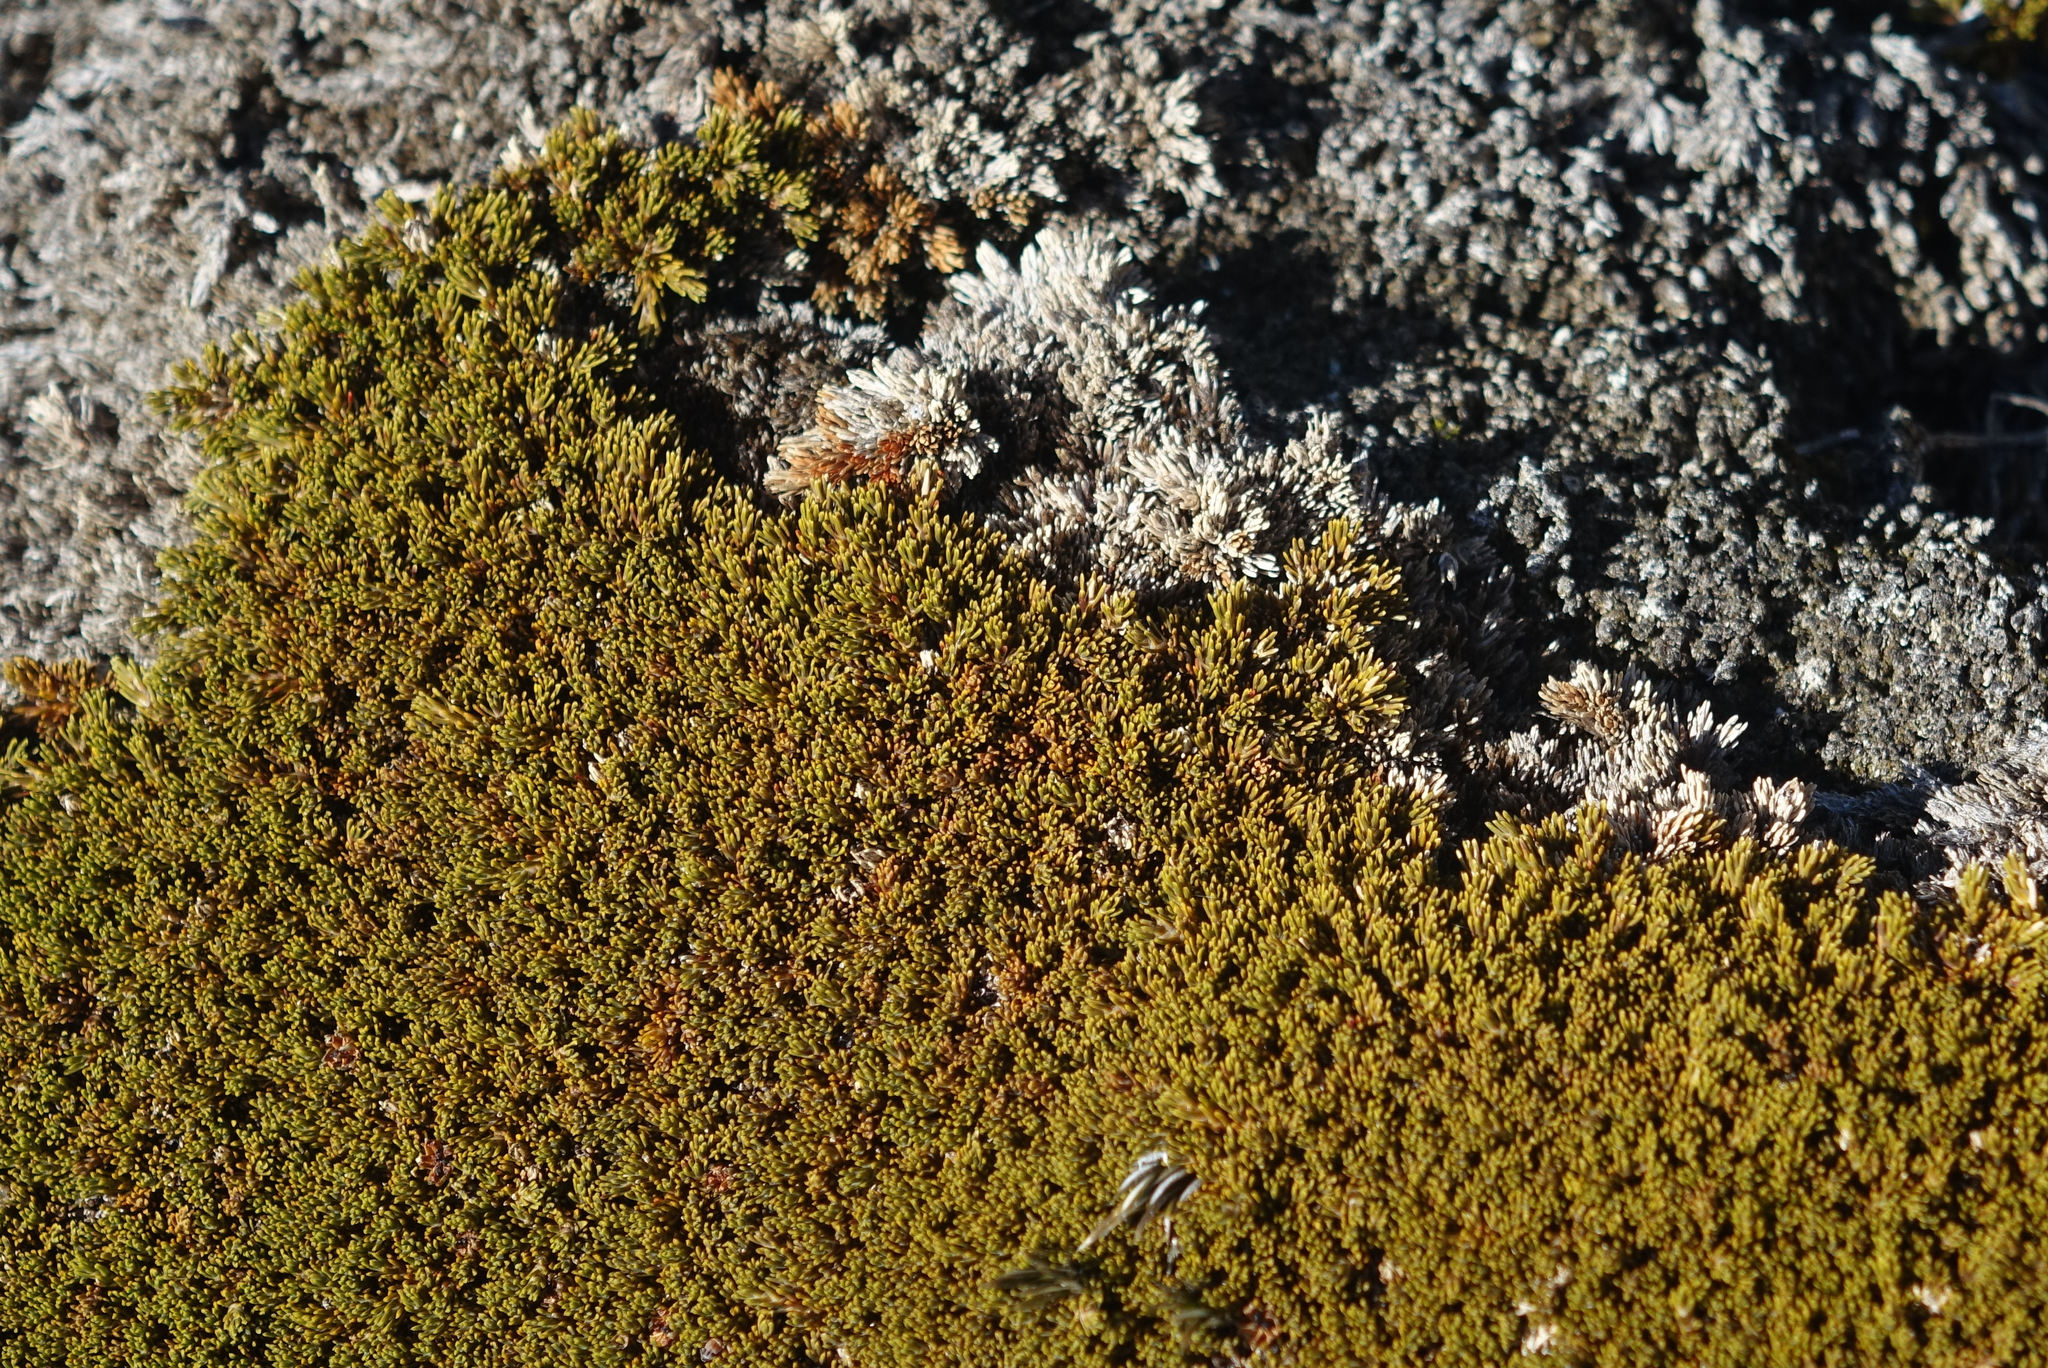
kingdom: Plantae
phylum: Tracheophyta
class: Magnoliopsida
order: Ericales
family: Ericaceae
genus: Dracophyllum
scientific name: Dracophyllum muscoides
